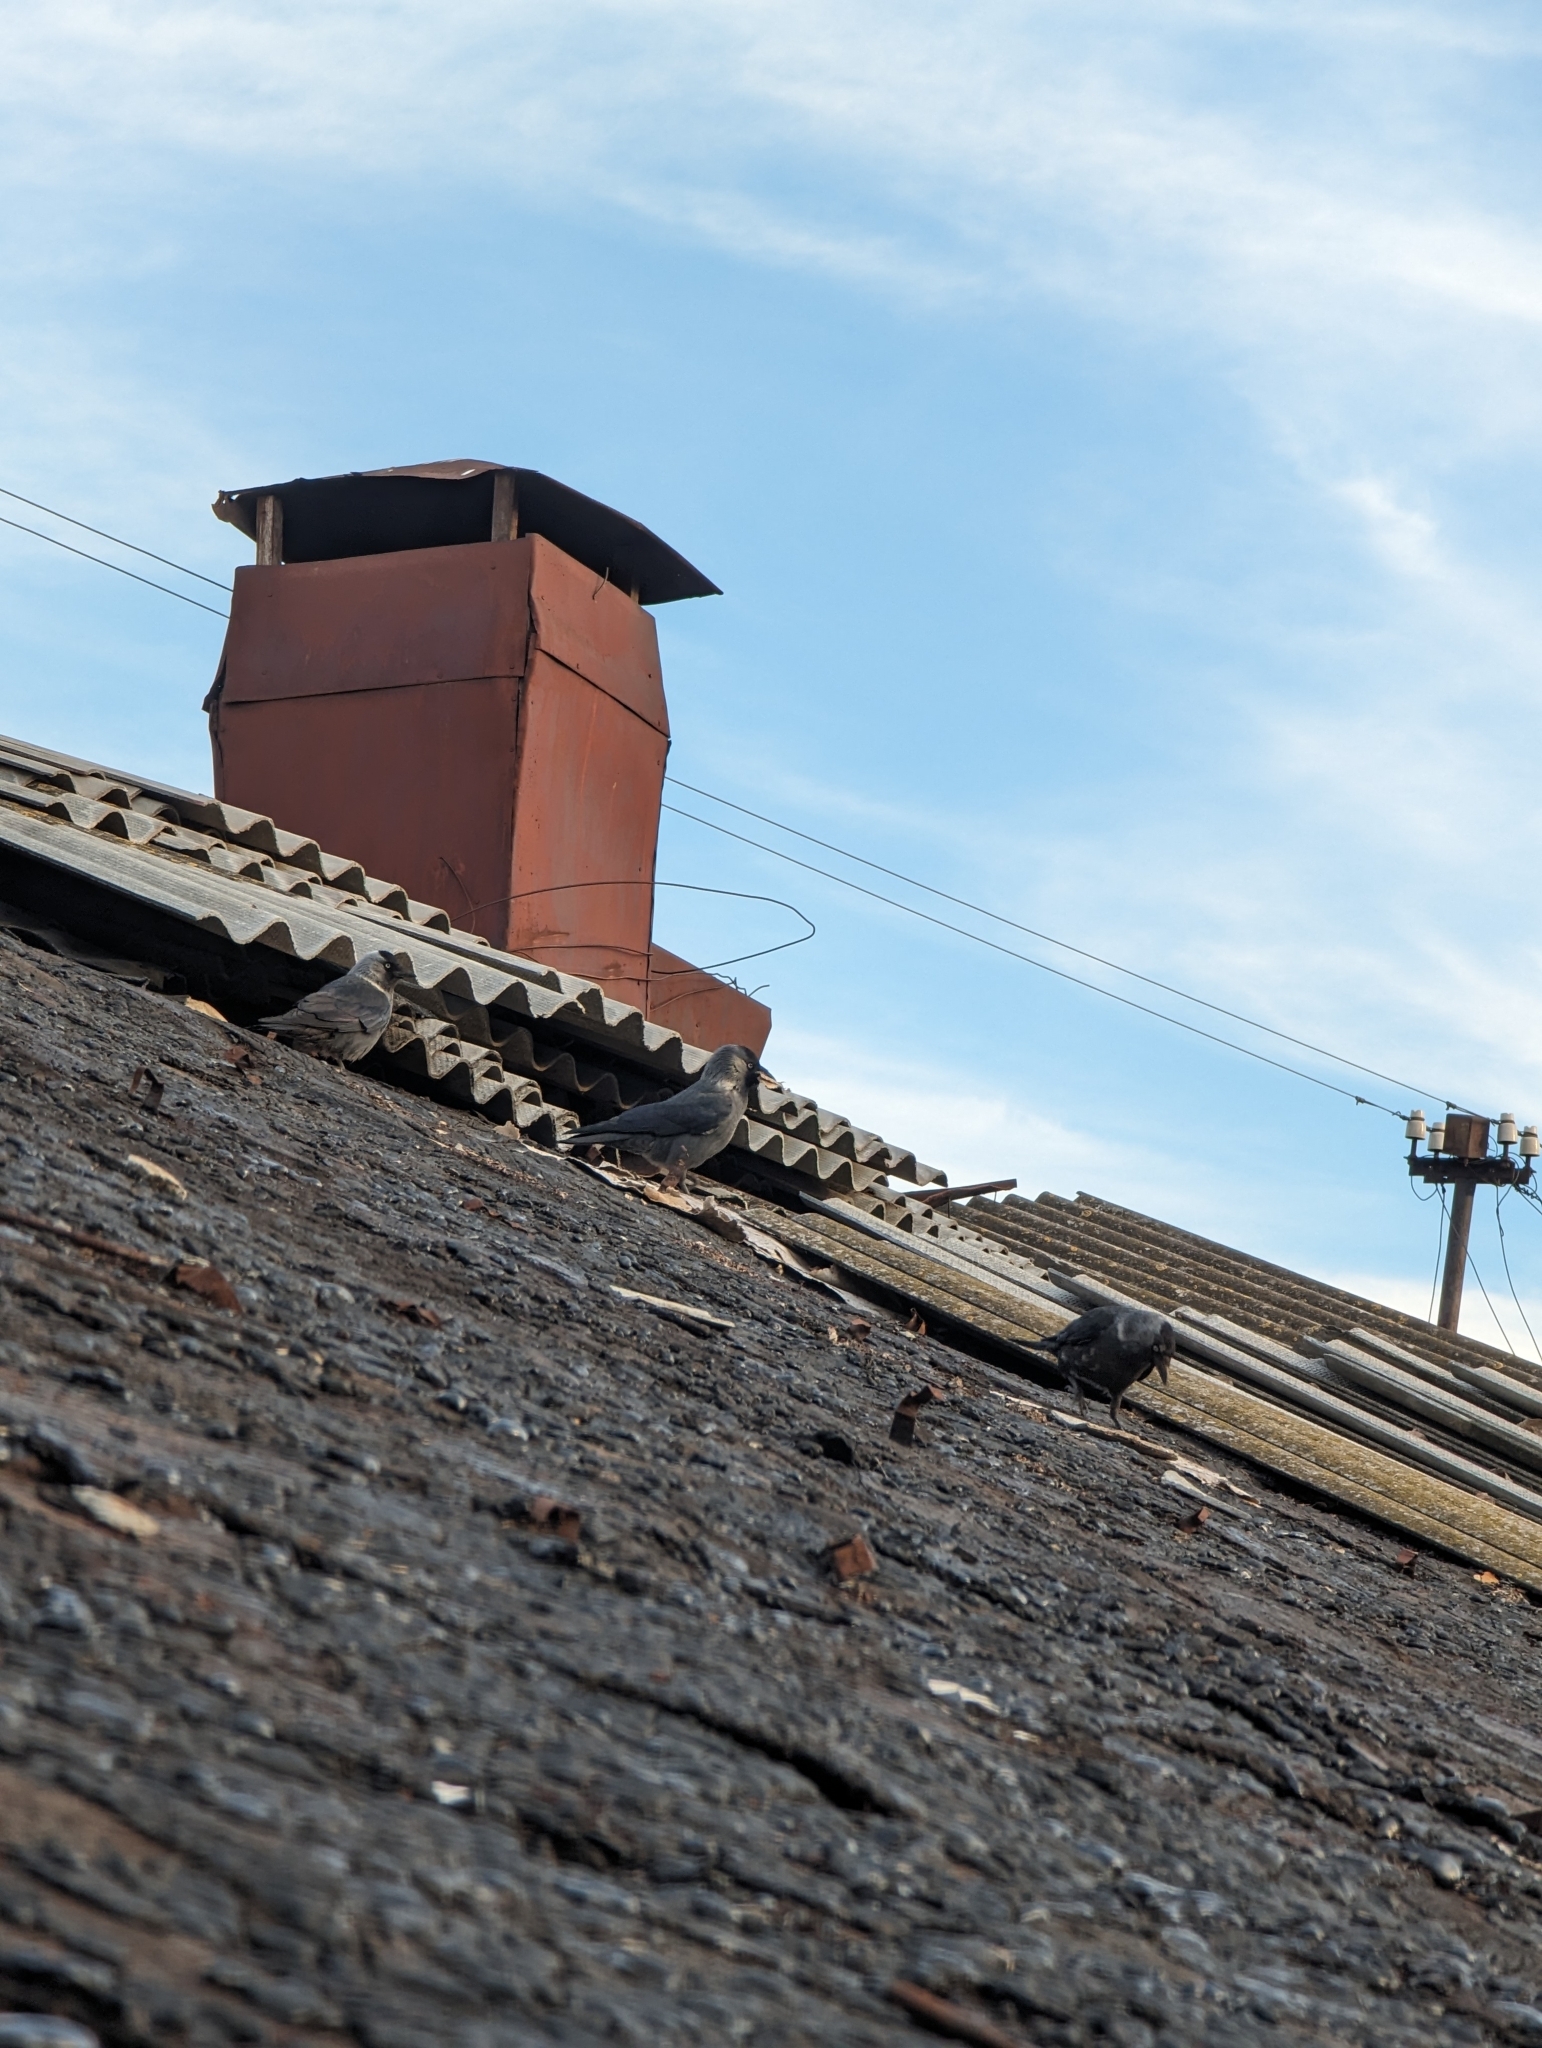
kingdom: Animalia
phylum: Chordata
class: Aves
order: Passeriformes
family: Corvidae
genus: Coloeus
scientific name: Coloeus monedula
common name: Western jackdaw
